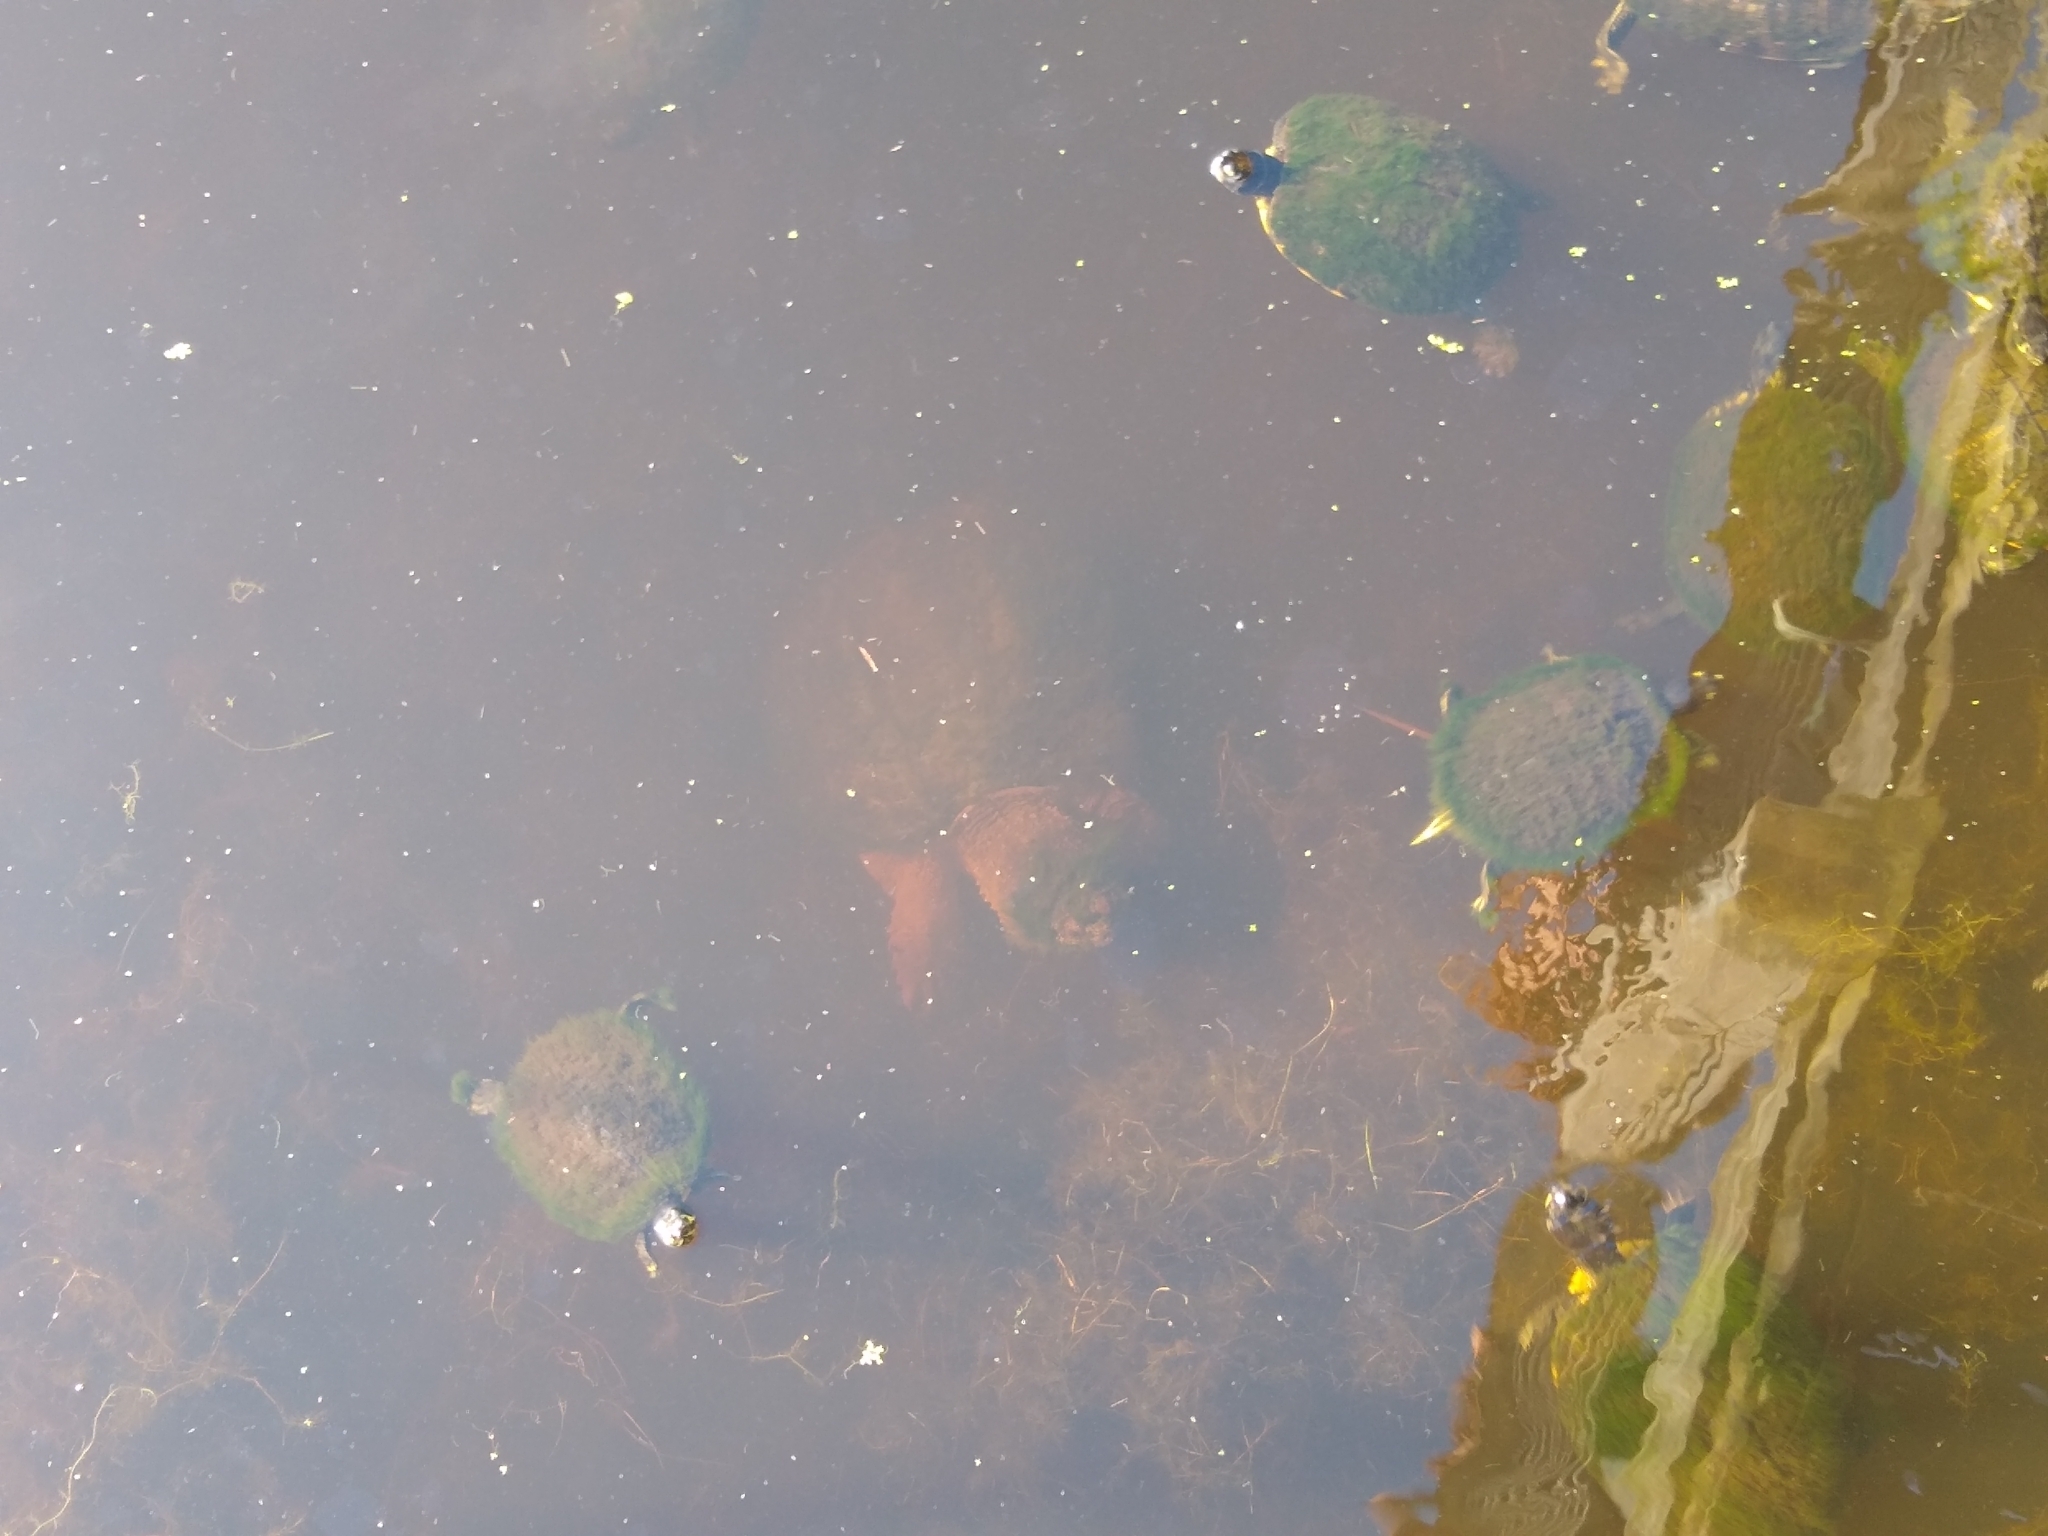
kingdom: Animalia
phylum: Chordata
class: Testudines
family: Chelydridae
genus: Chelydra
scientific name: Chelydra serpentina
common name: Common snapping turtle
